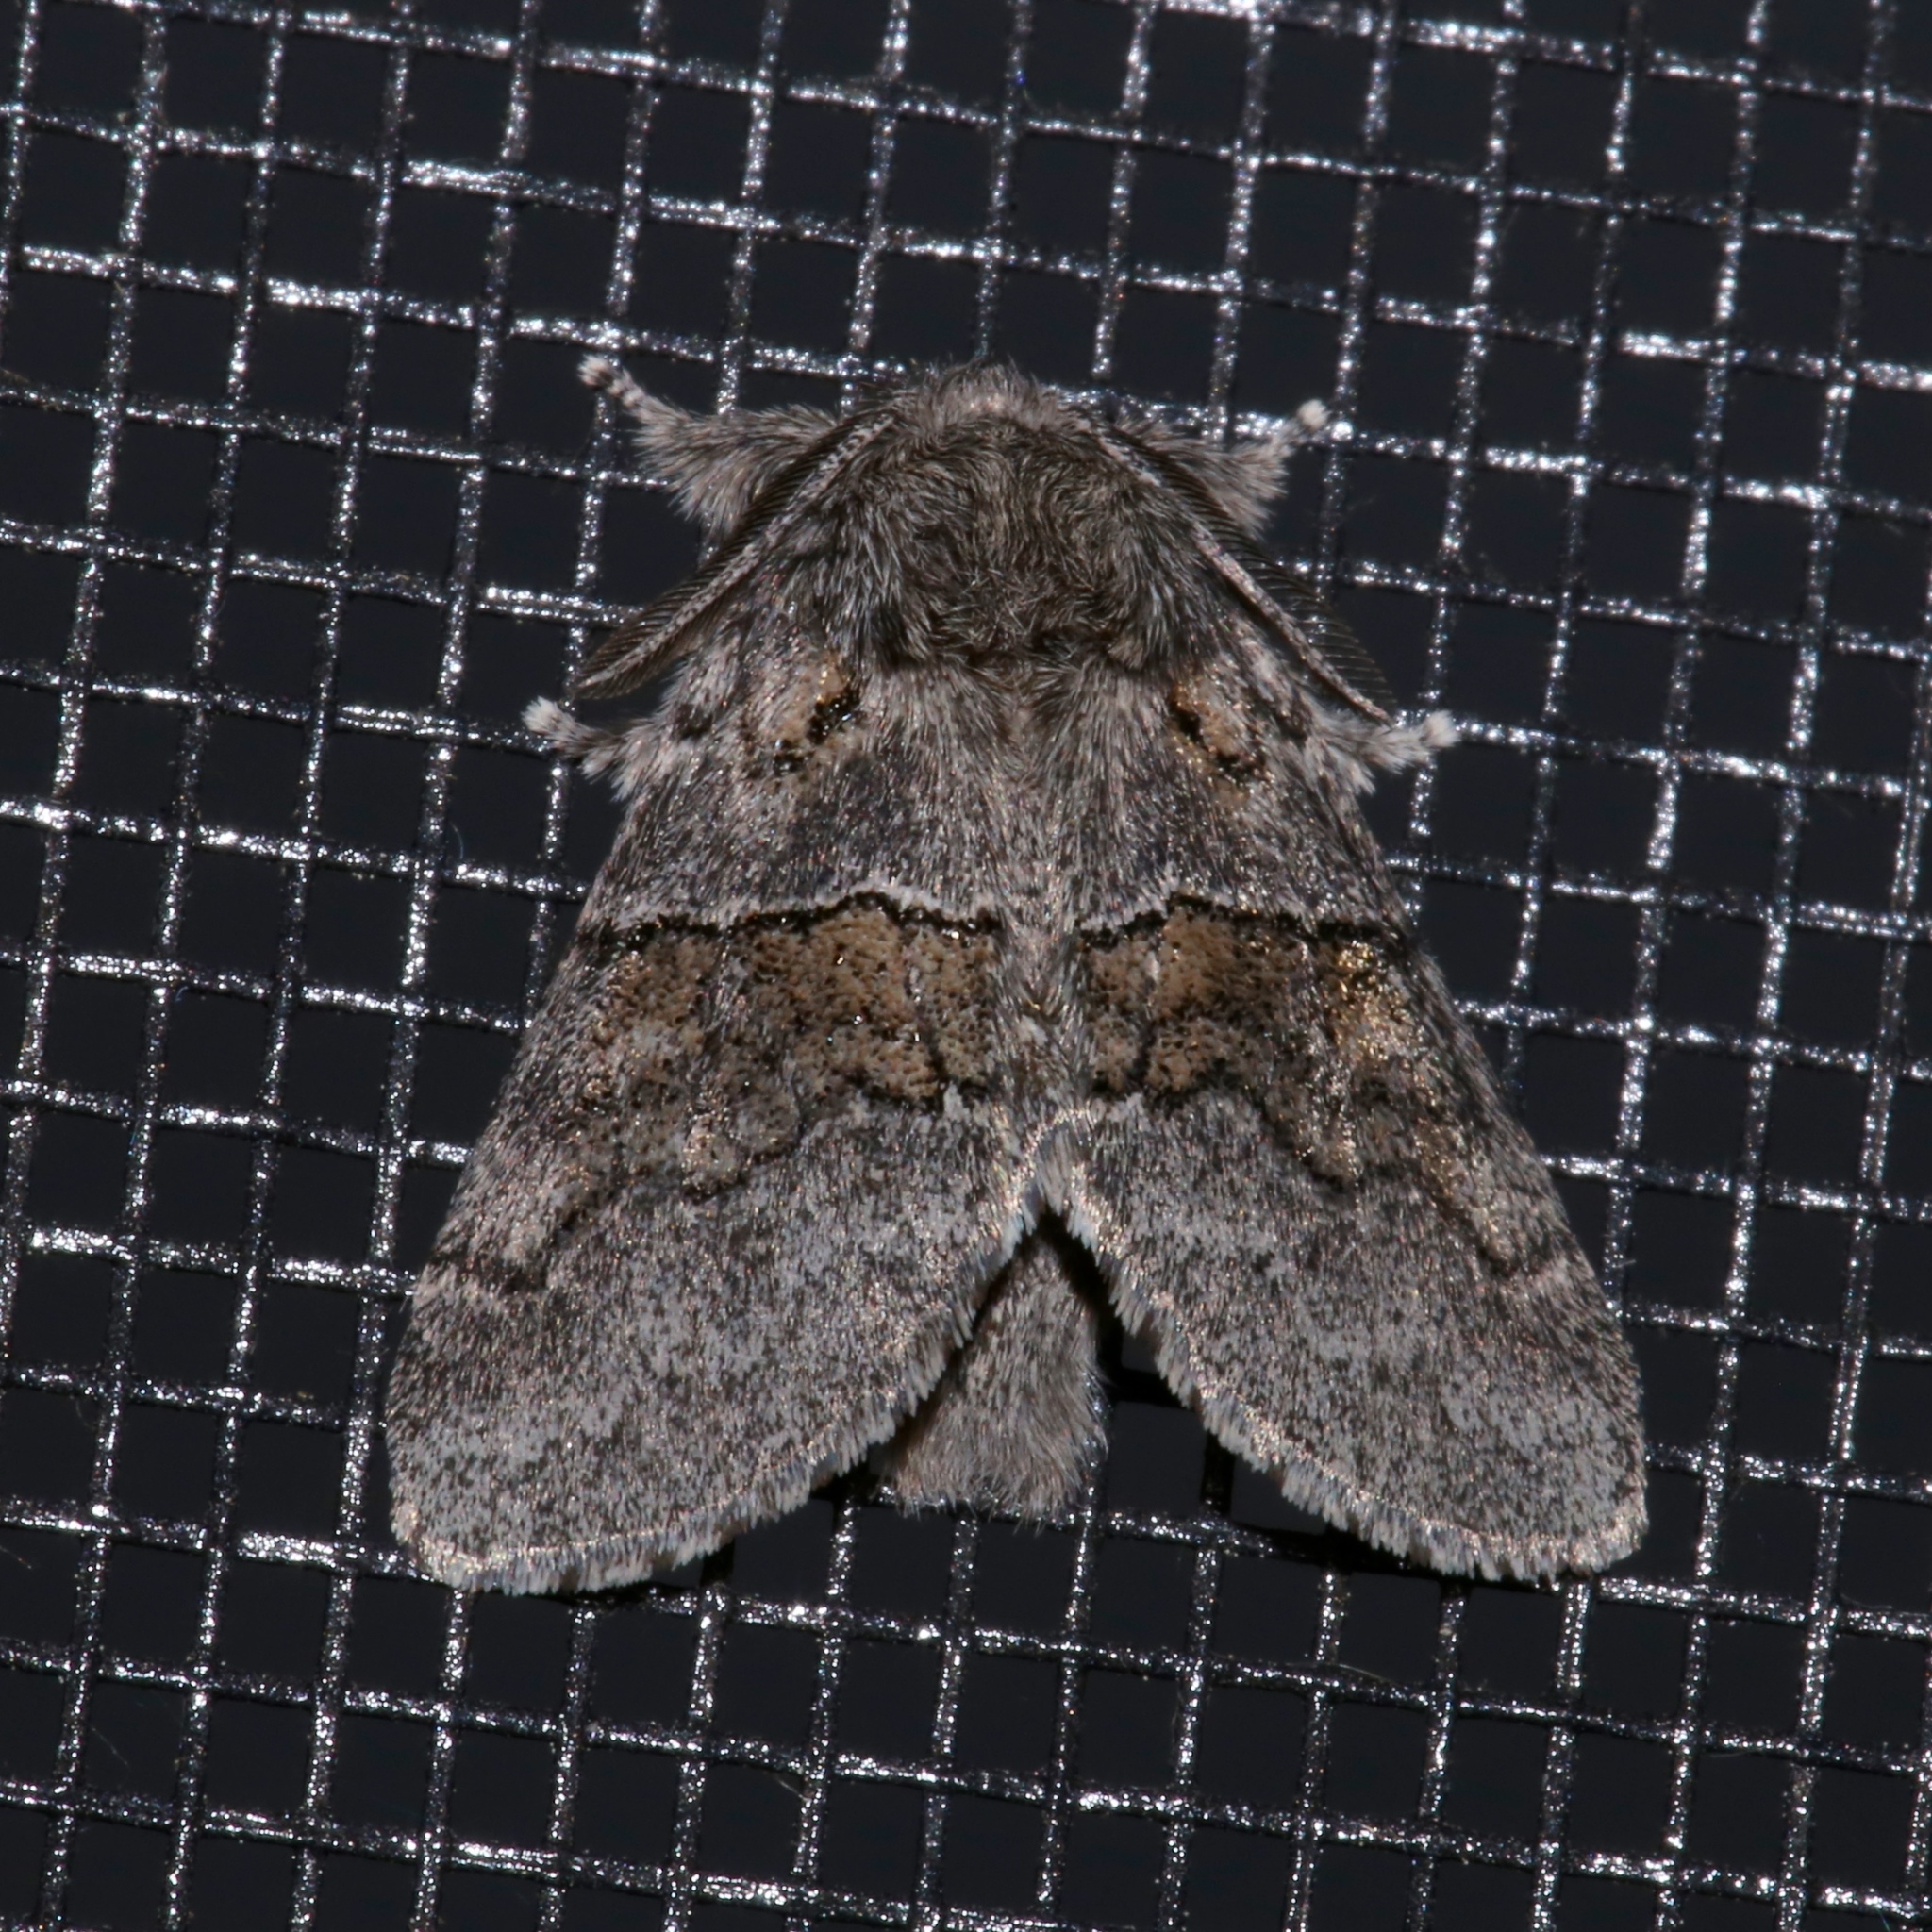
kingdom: Animalia
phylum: Arthropoda
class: Insecta
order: Lepidoptera
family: Notodontidae
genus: Gluphisia
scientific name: Gluphisia septentrionis
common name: Common gluphisia
